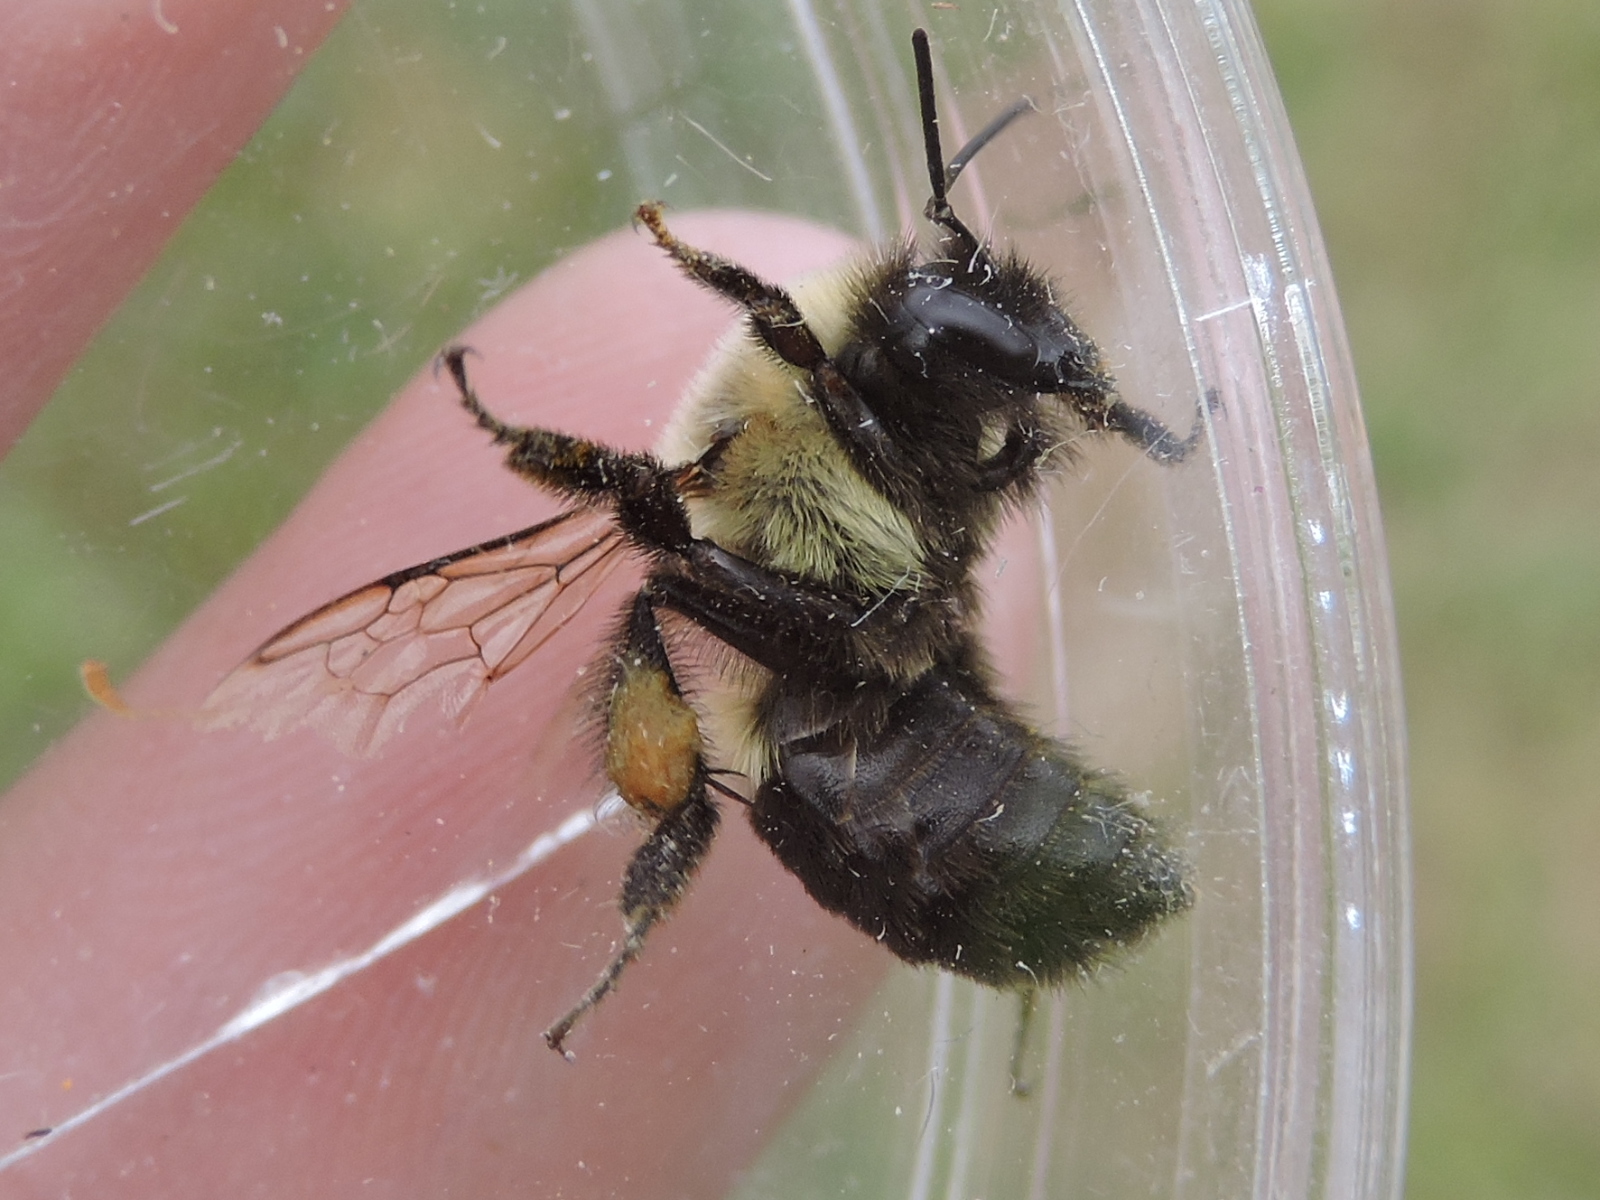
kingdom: Animalia
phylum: Arthropoda
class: Insecta
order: Hymenoptera
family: Apidae
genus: Bombus
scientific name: Bombus impatiens
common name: Common eastern bumble bee
